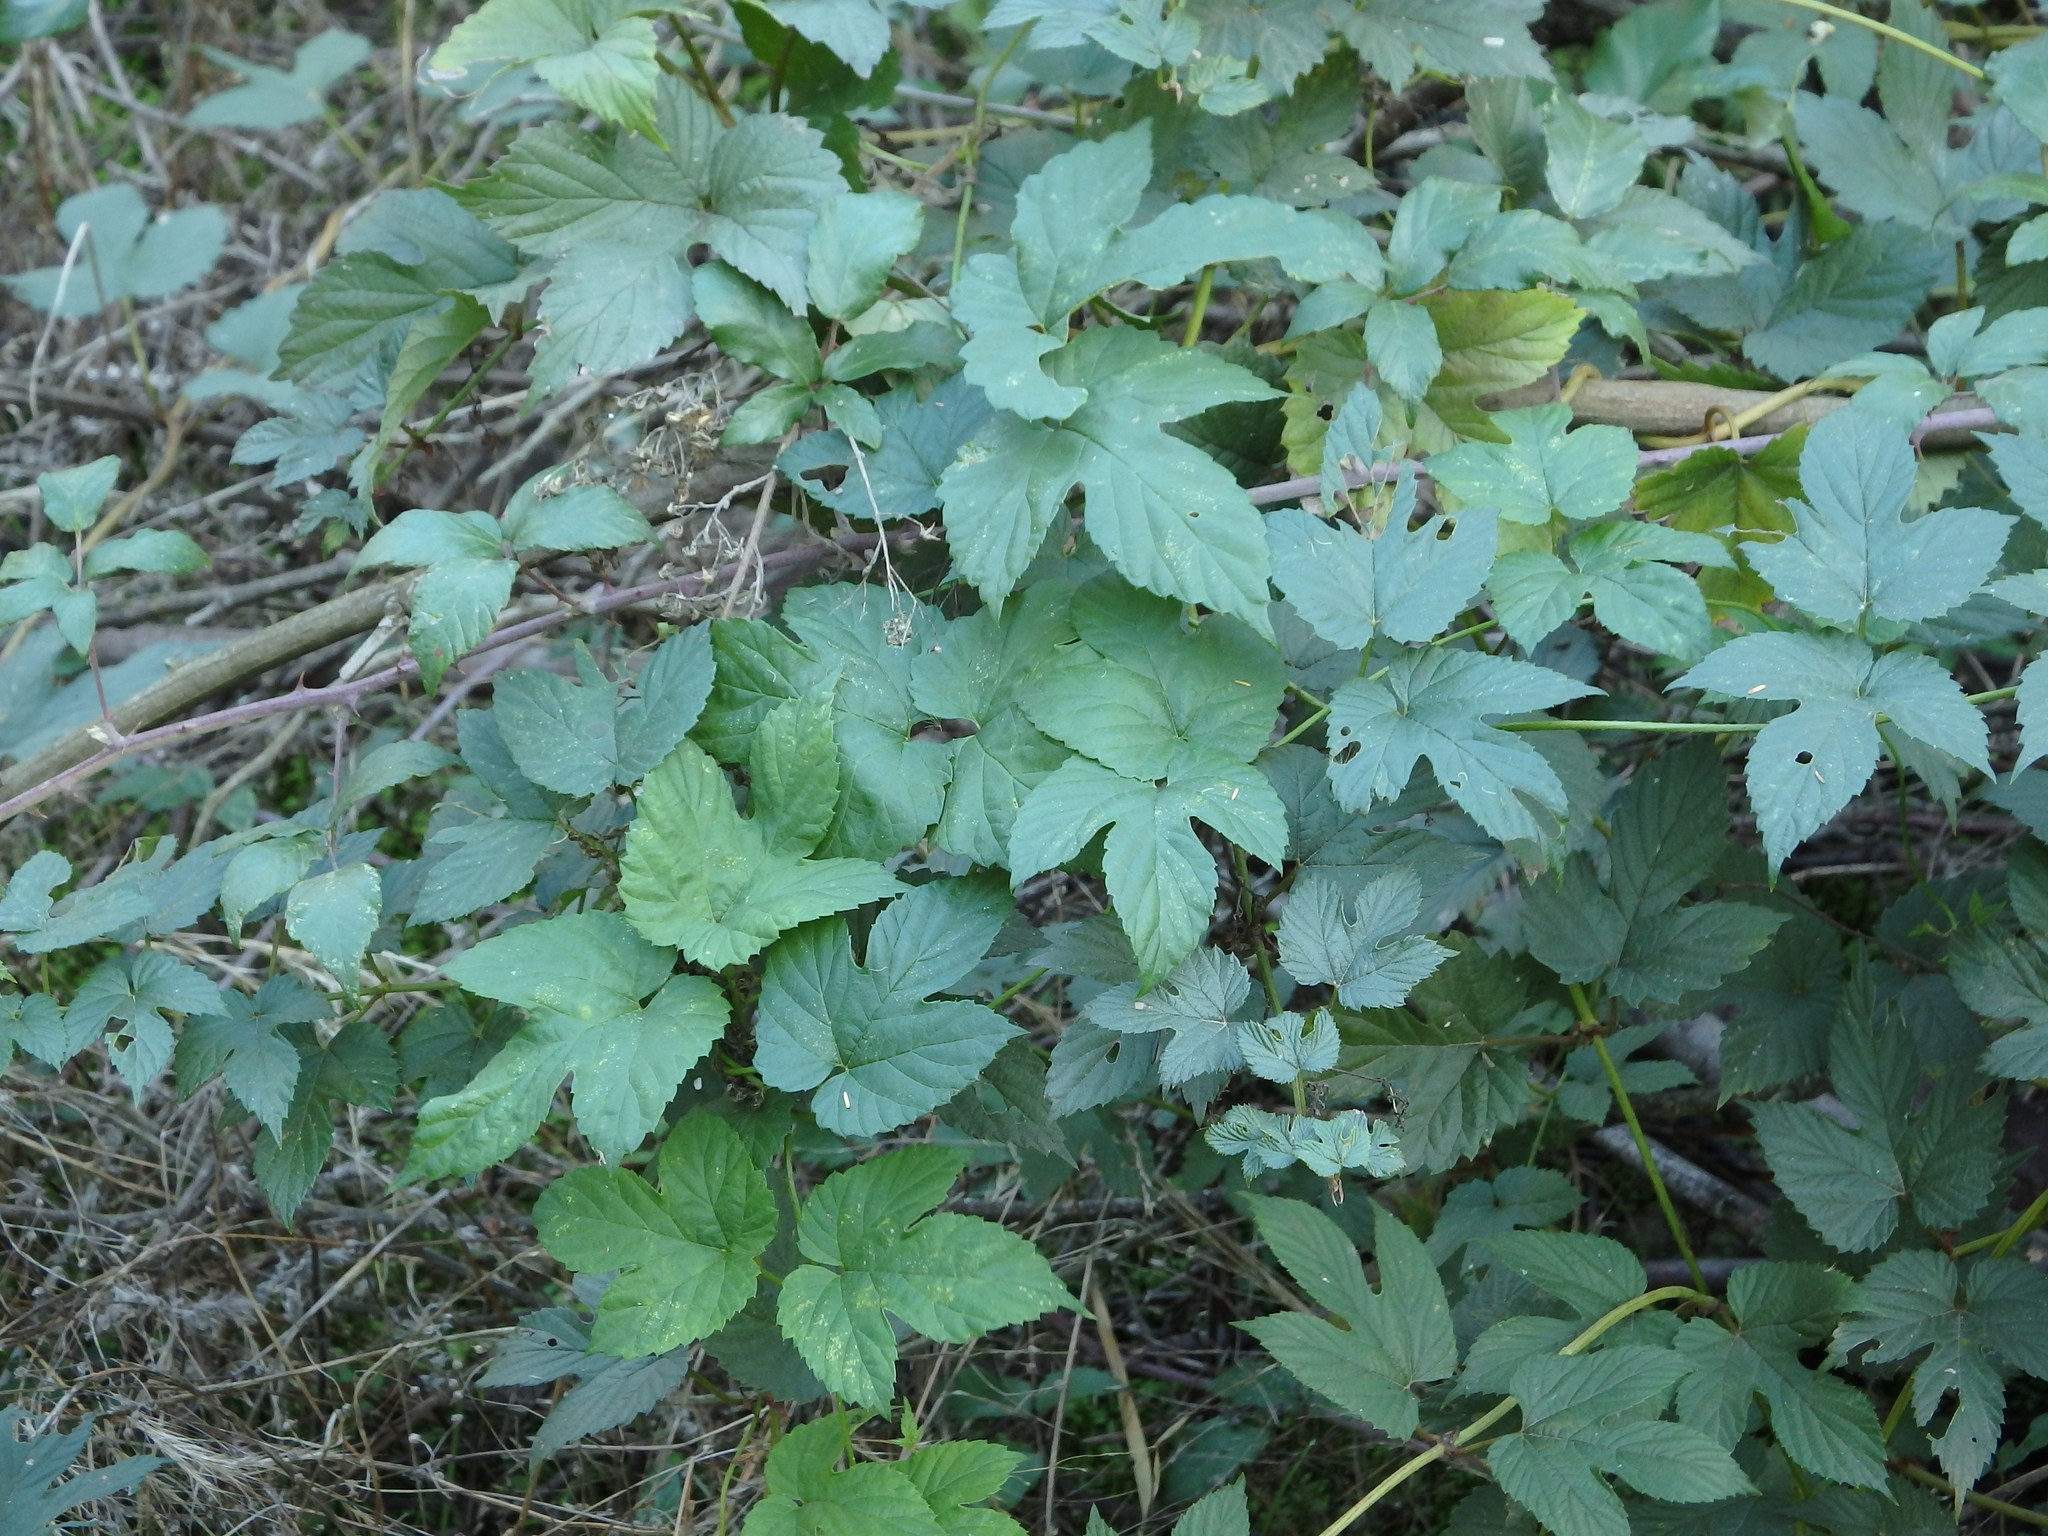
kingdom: Plantae
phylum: Tracheophyta
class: Magnoliopsida
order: Rosales
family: Cannabaceae
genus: Humulus
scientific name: Humulus lupulus
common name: Hop
